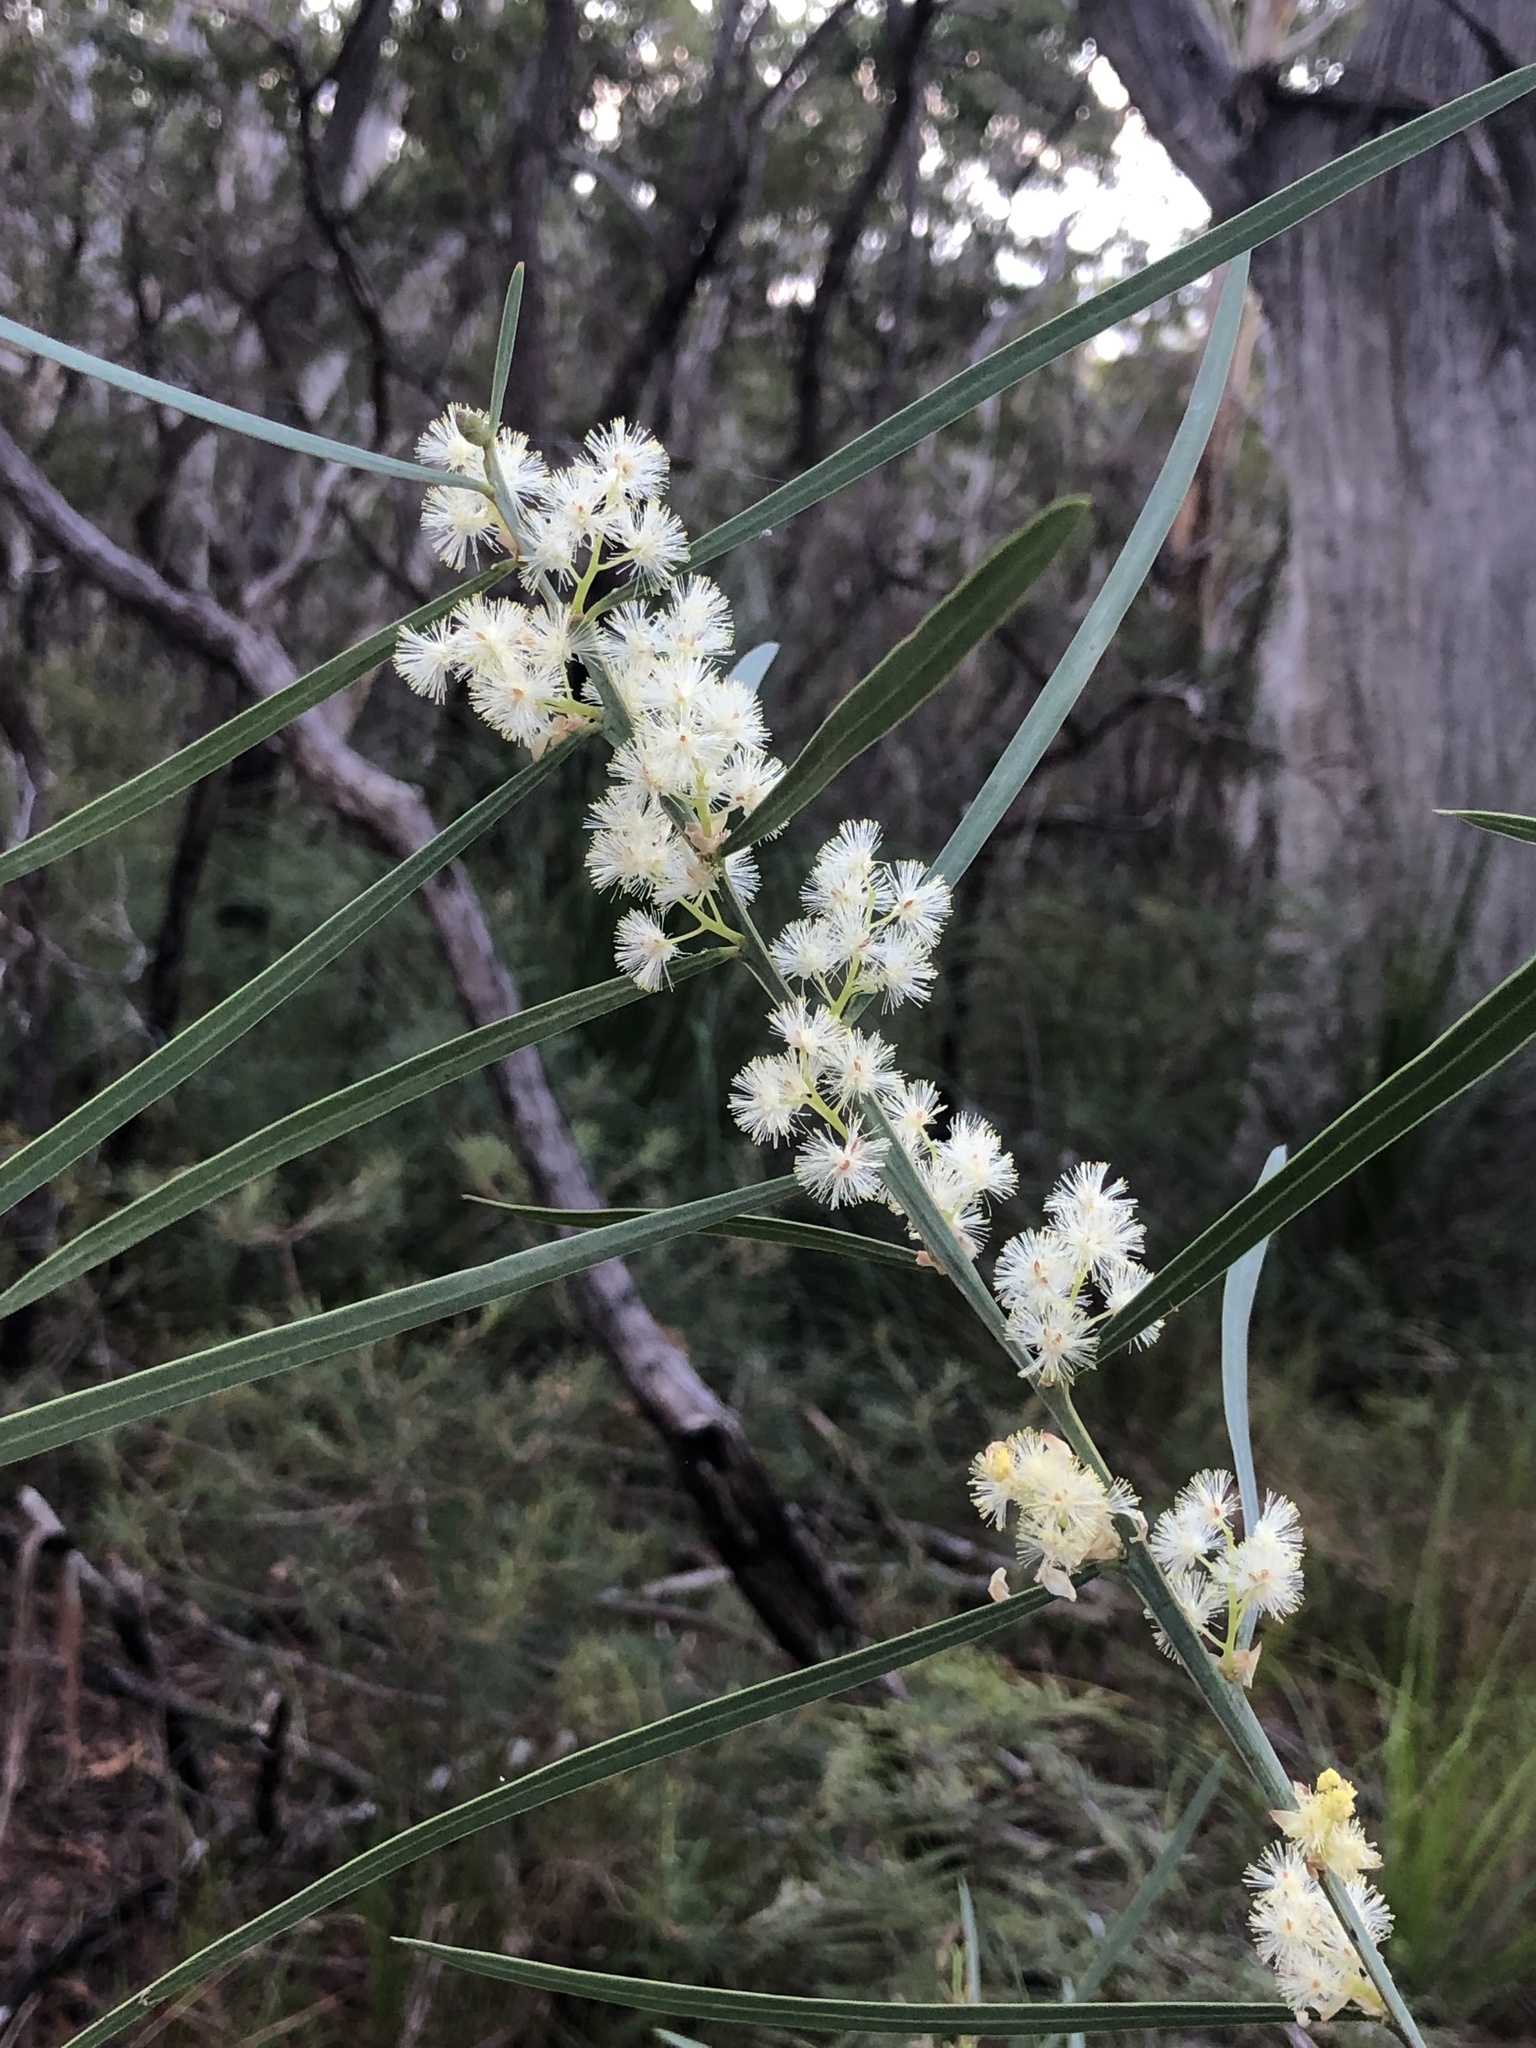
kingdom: Plantae
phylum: Tracheophyta
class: Magnoliopsida
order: Fabales
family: Fabaceae
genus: Acacia
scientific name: Acacia suaveolens
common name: Sweet acacia
